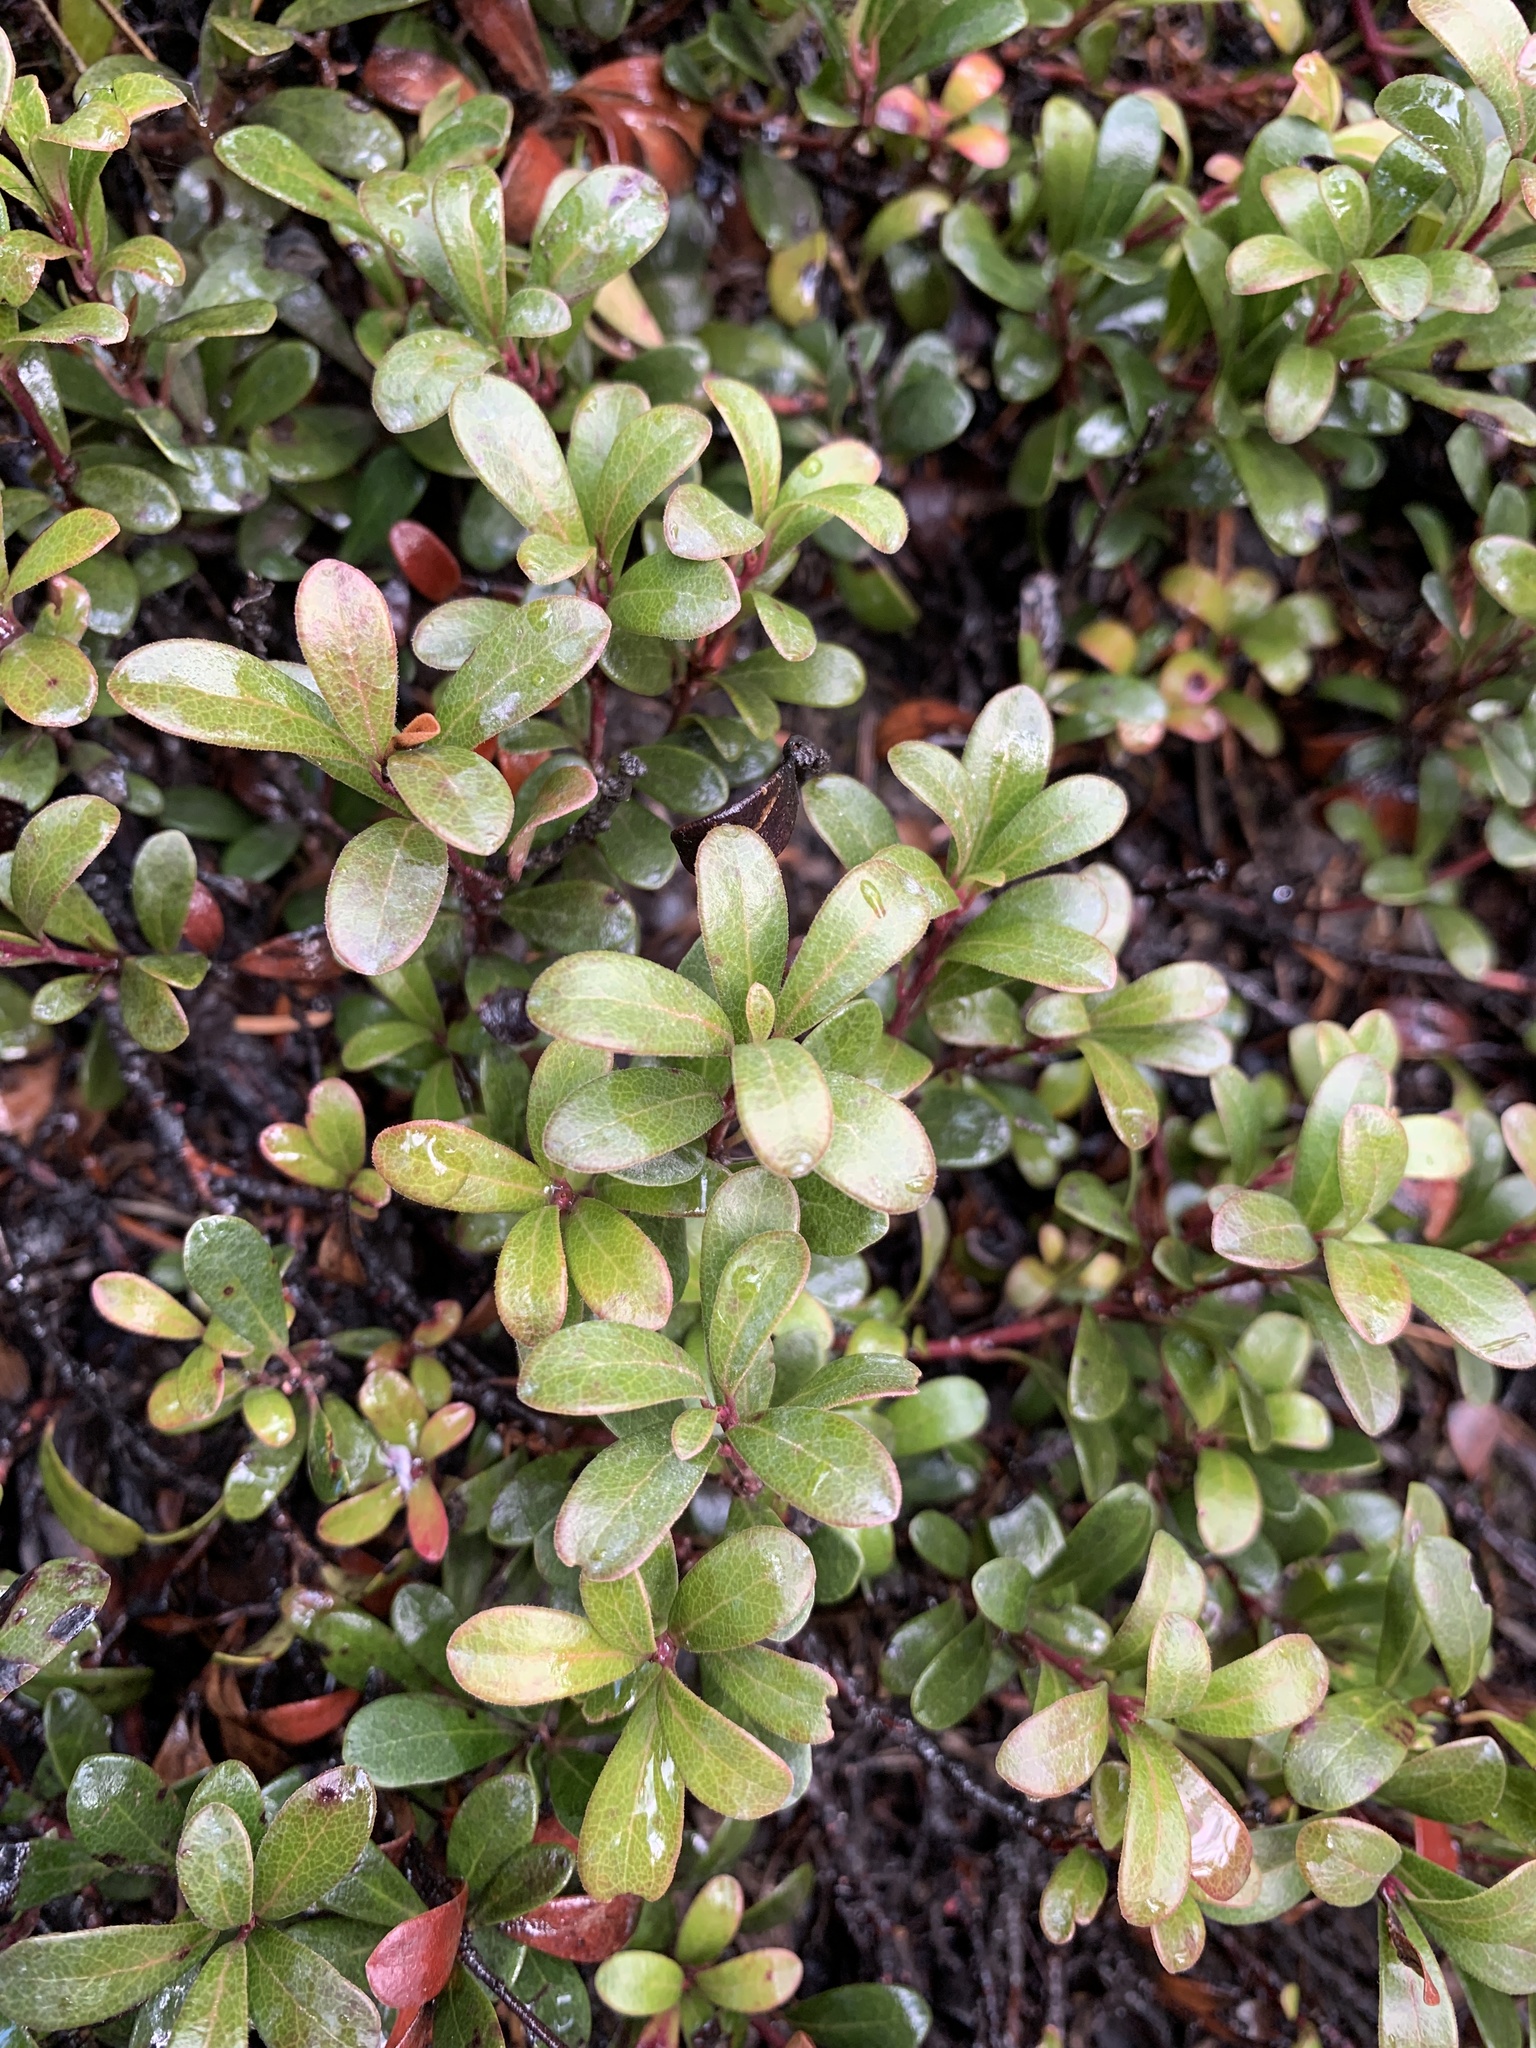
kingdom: Plantae
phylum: Tracheophyta
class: Magnoliopsida
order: Ericales
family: Ericaceae
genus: Arctostaphylos
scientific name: Arctostaphylos uva-ursi
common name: Bearberry
